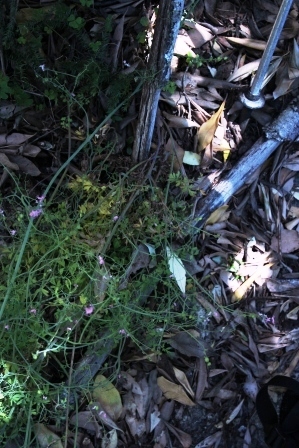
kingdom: Plantae
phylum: Tracheophyta
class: Magnoliopsida
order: Ranunculales
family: Papaveraceae
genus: Discocapnos
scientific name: Discocapnos mundti
